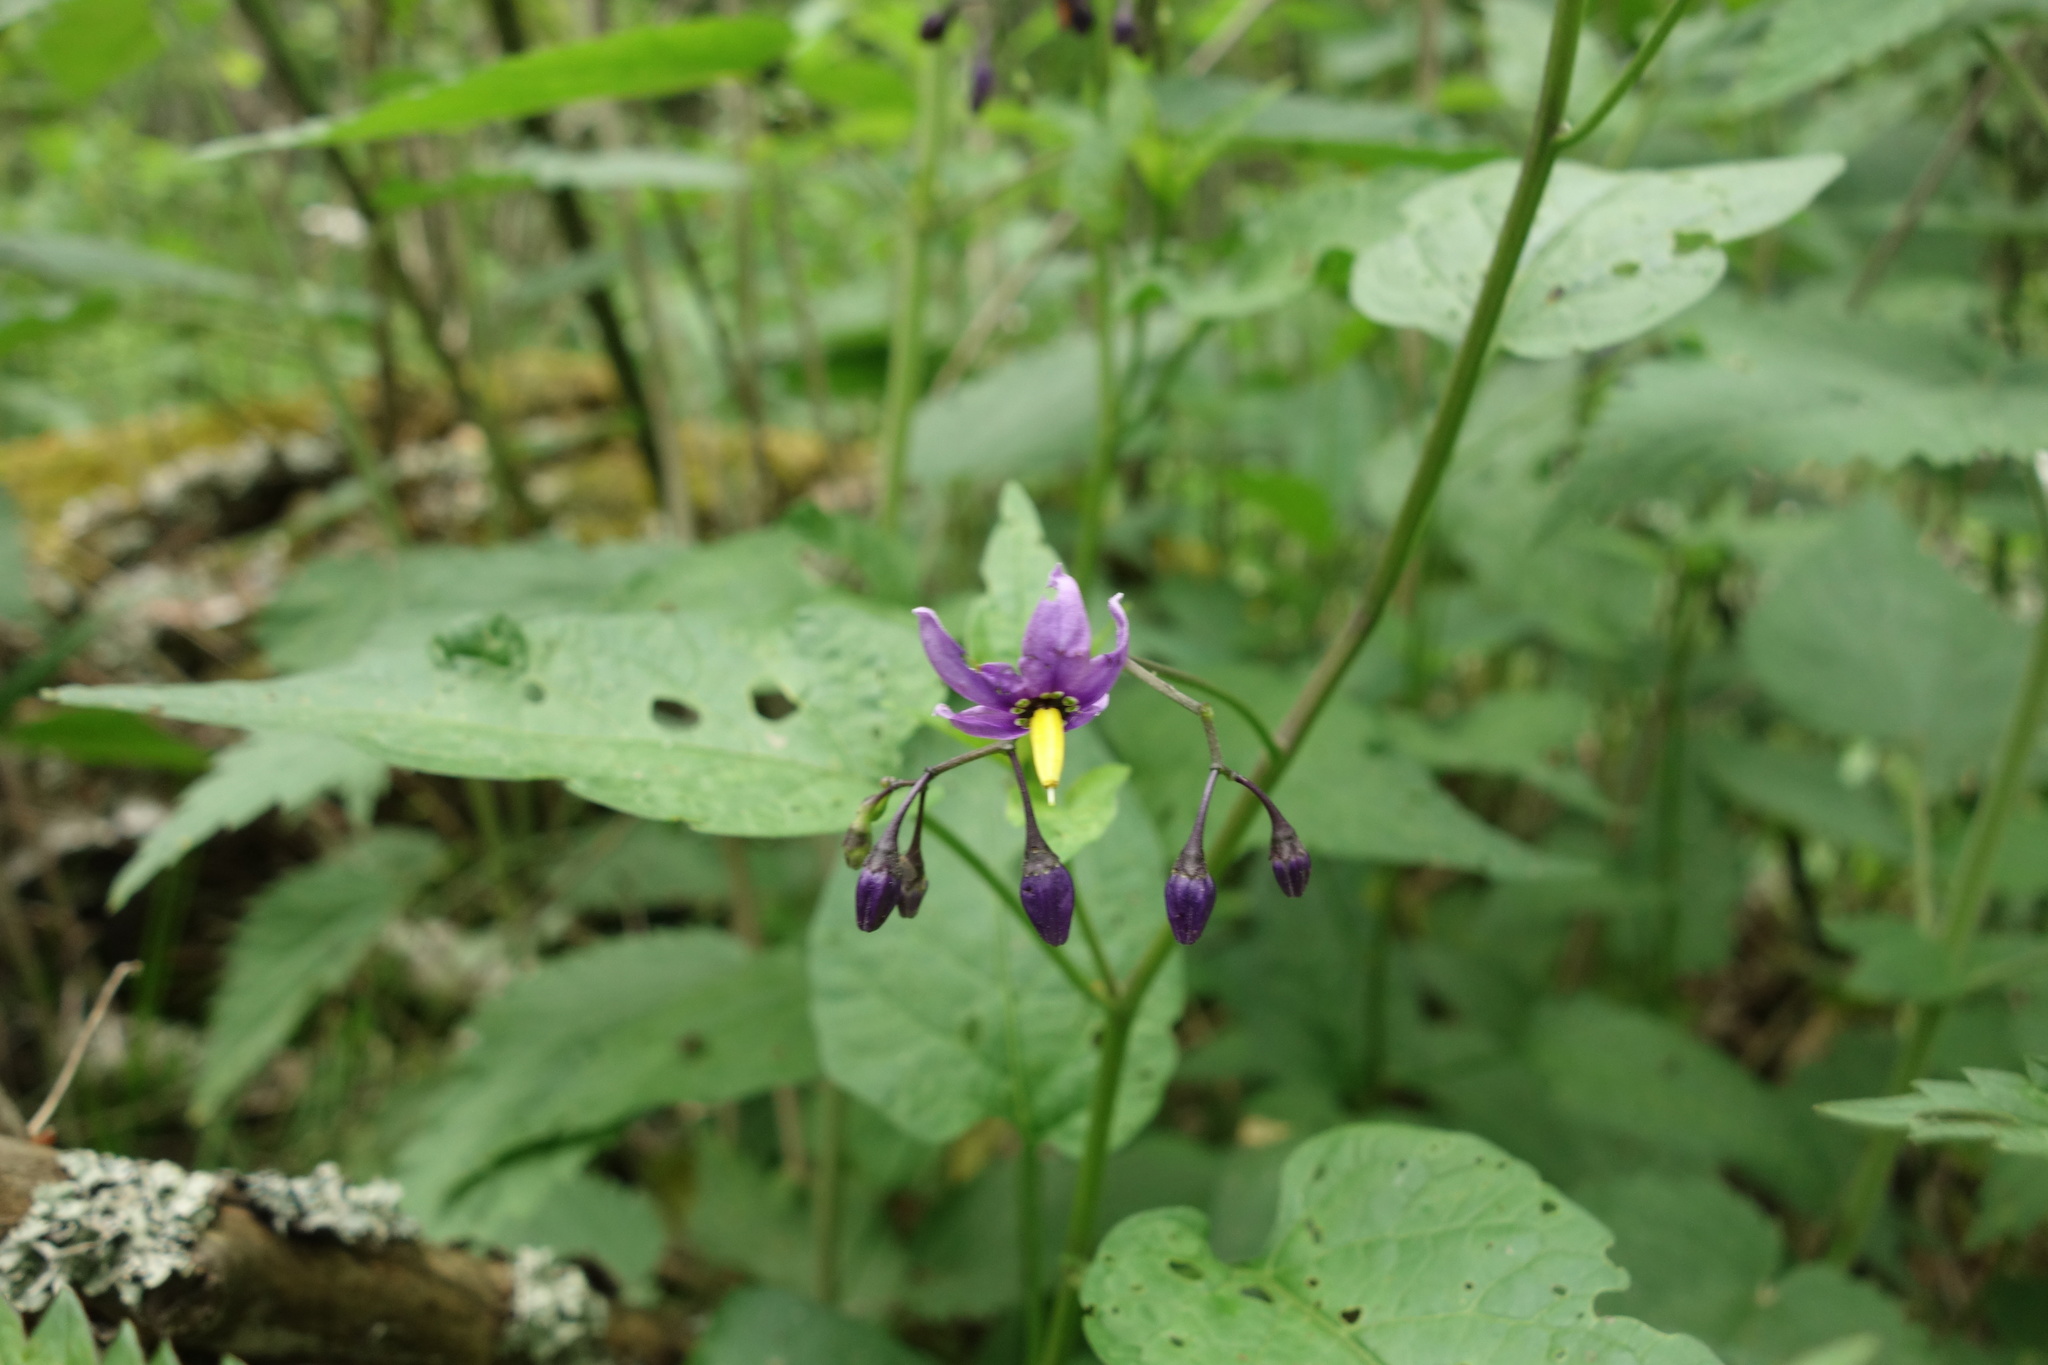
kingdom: Plantae
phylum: Tracheophyta
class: Magnoliopsida
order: Solanales
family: Solanaceae
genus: Solanum
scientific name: Solanum dulcamara
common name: Climbing nightshade
